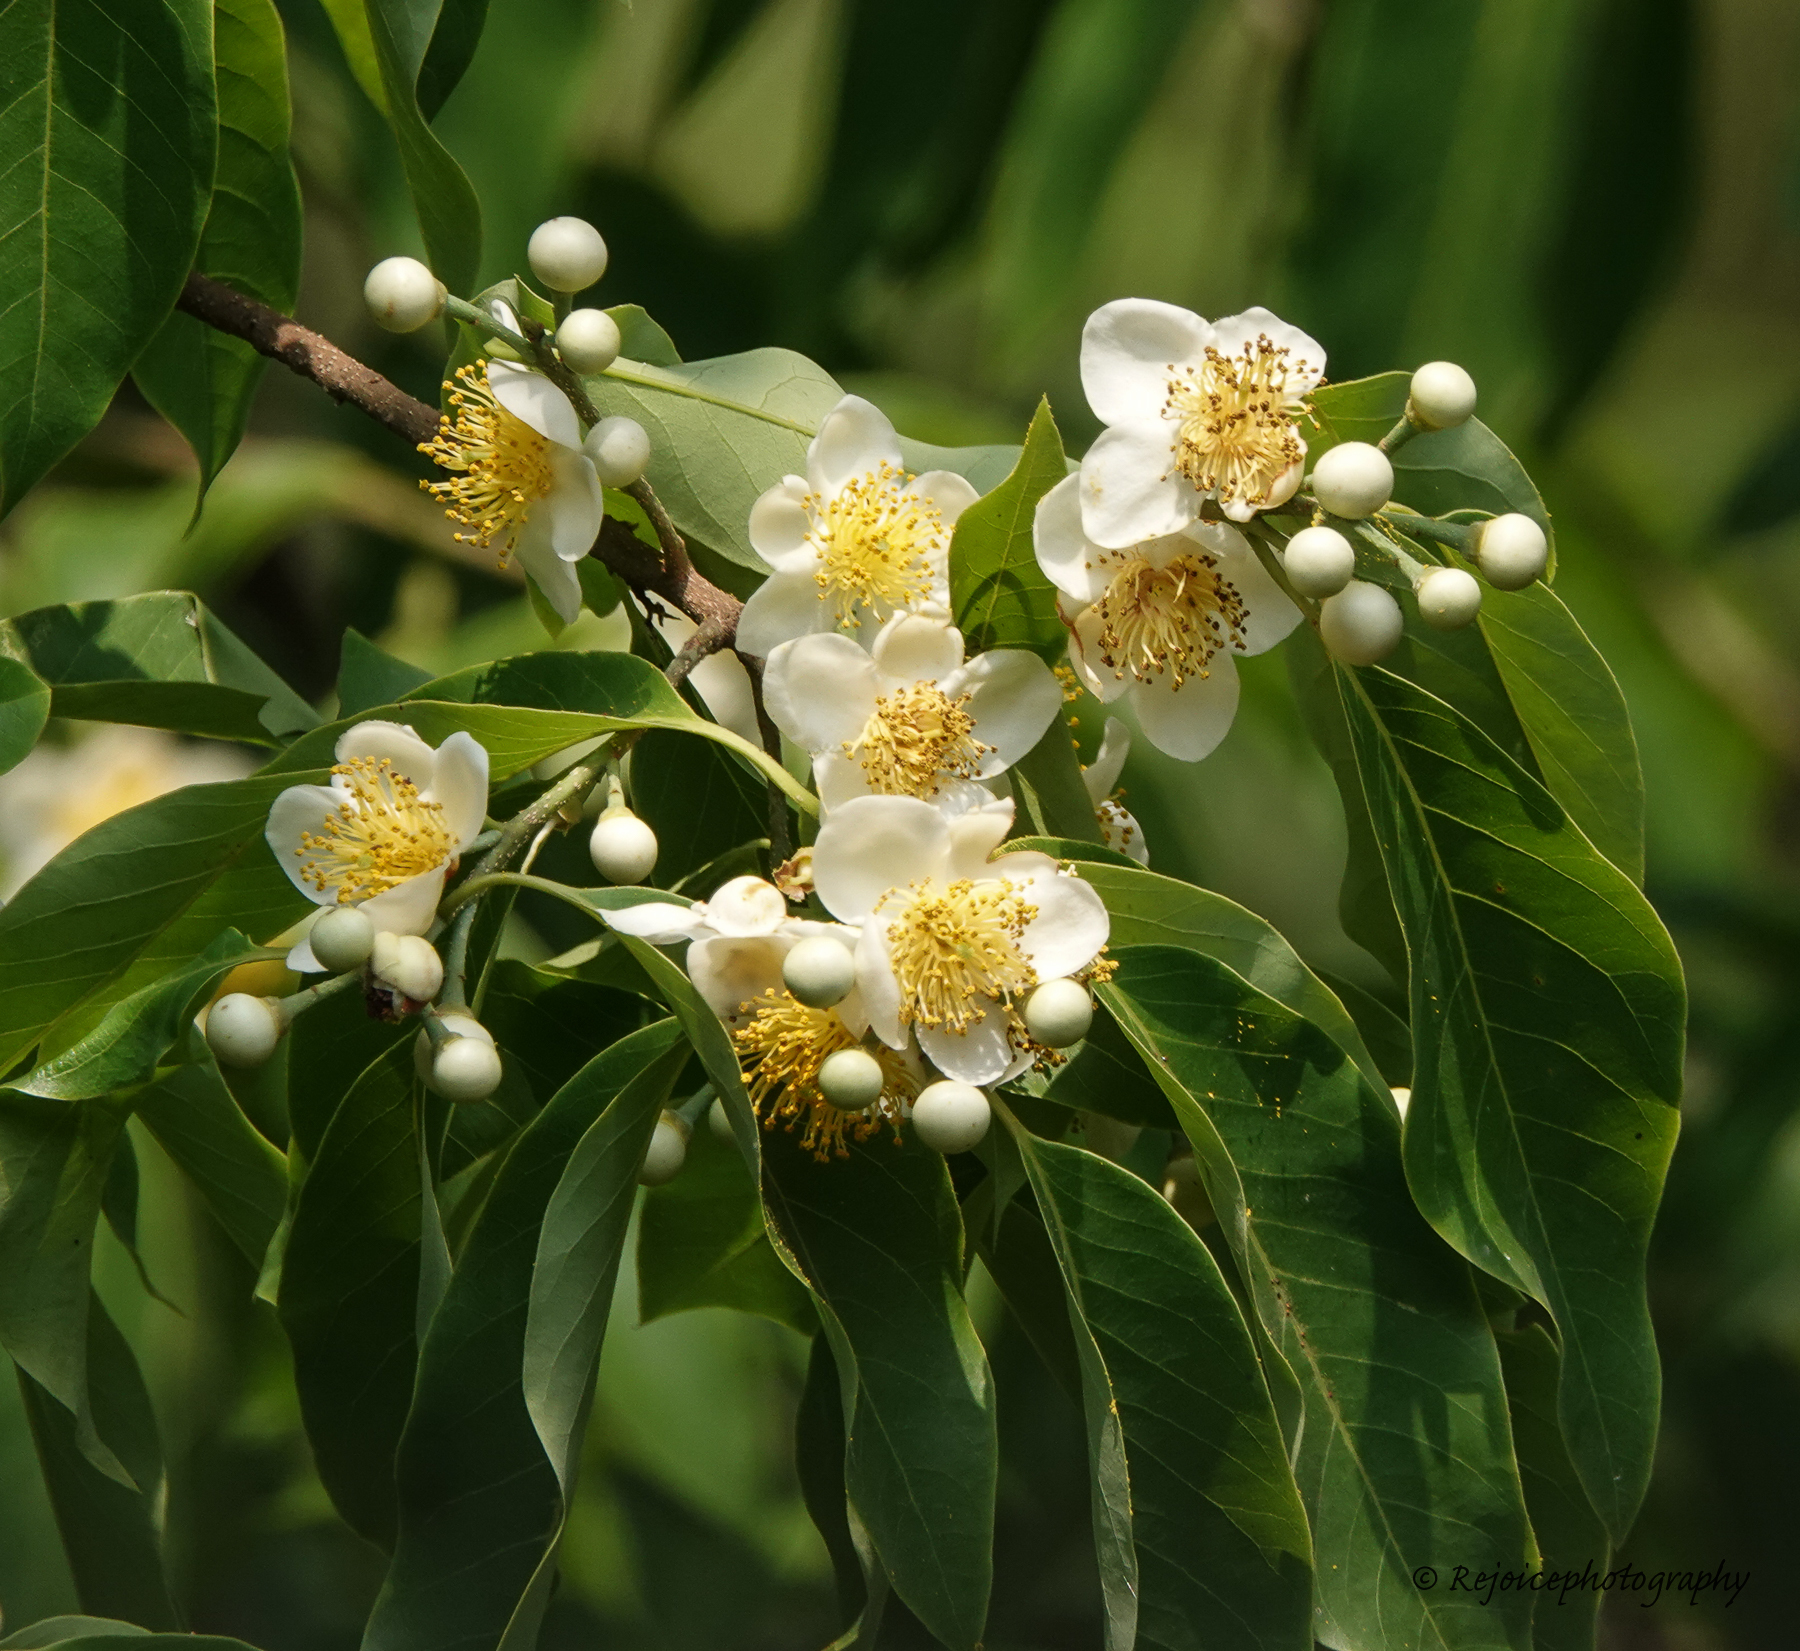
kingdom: Plantae
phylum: Tracheophyta
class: Magnoliopsida
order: Ericales
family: Theaceae
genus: Schima
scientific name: Schima wallichii
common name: Schima
